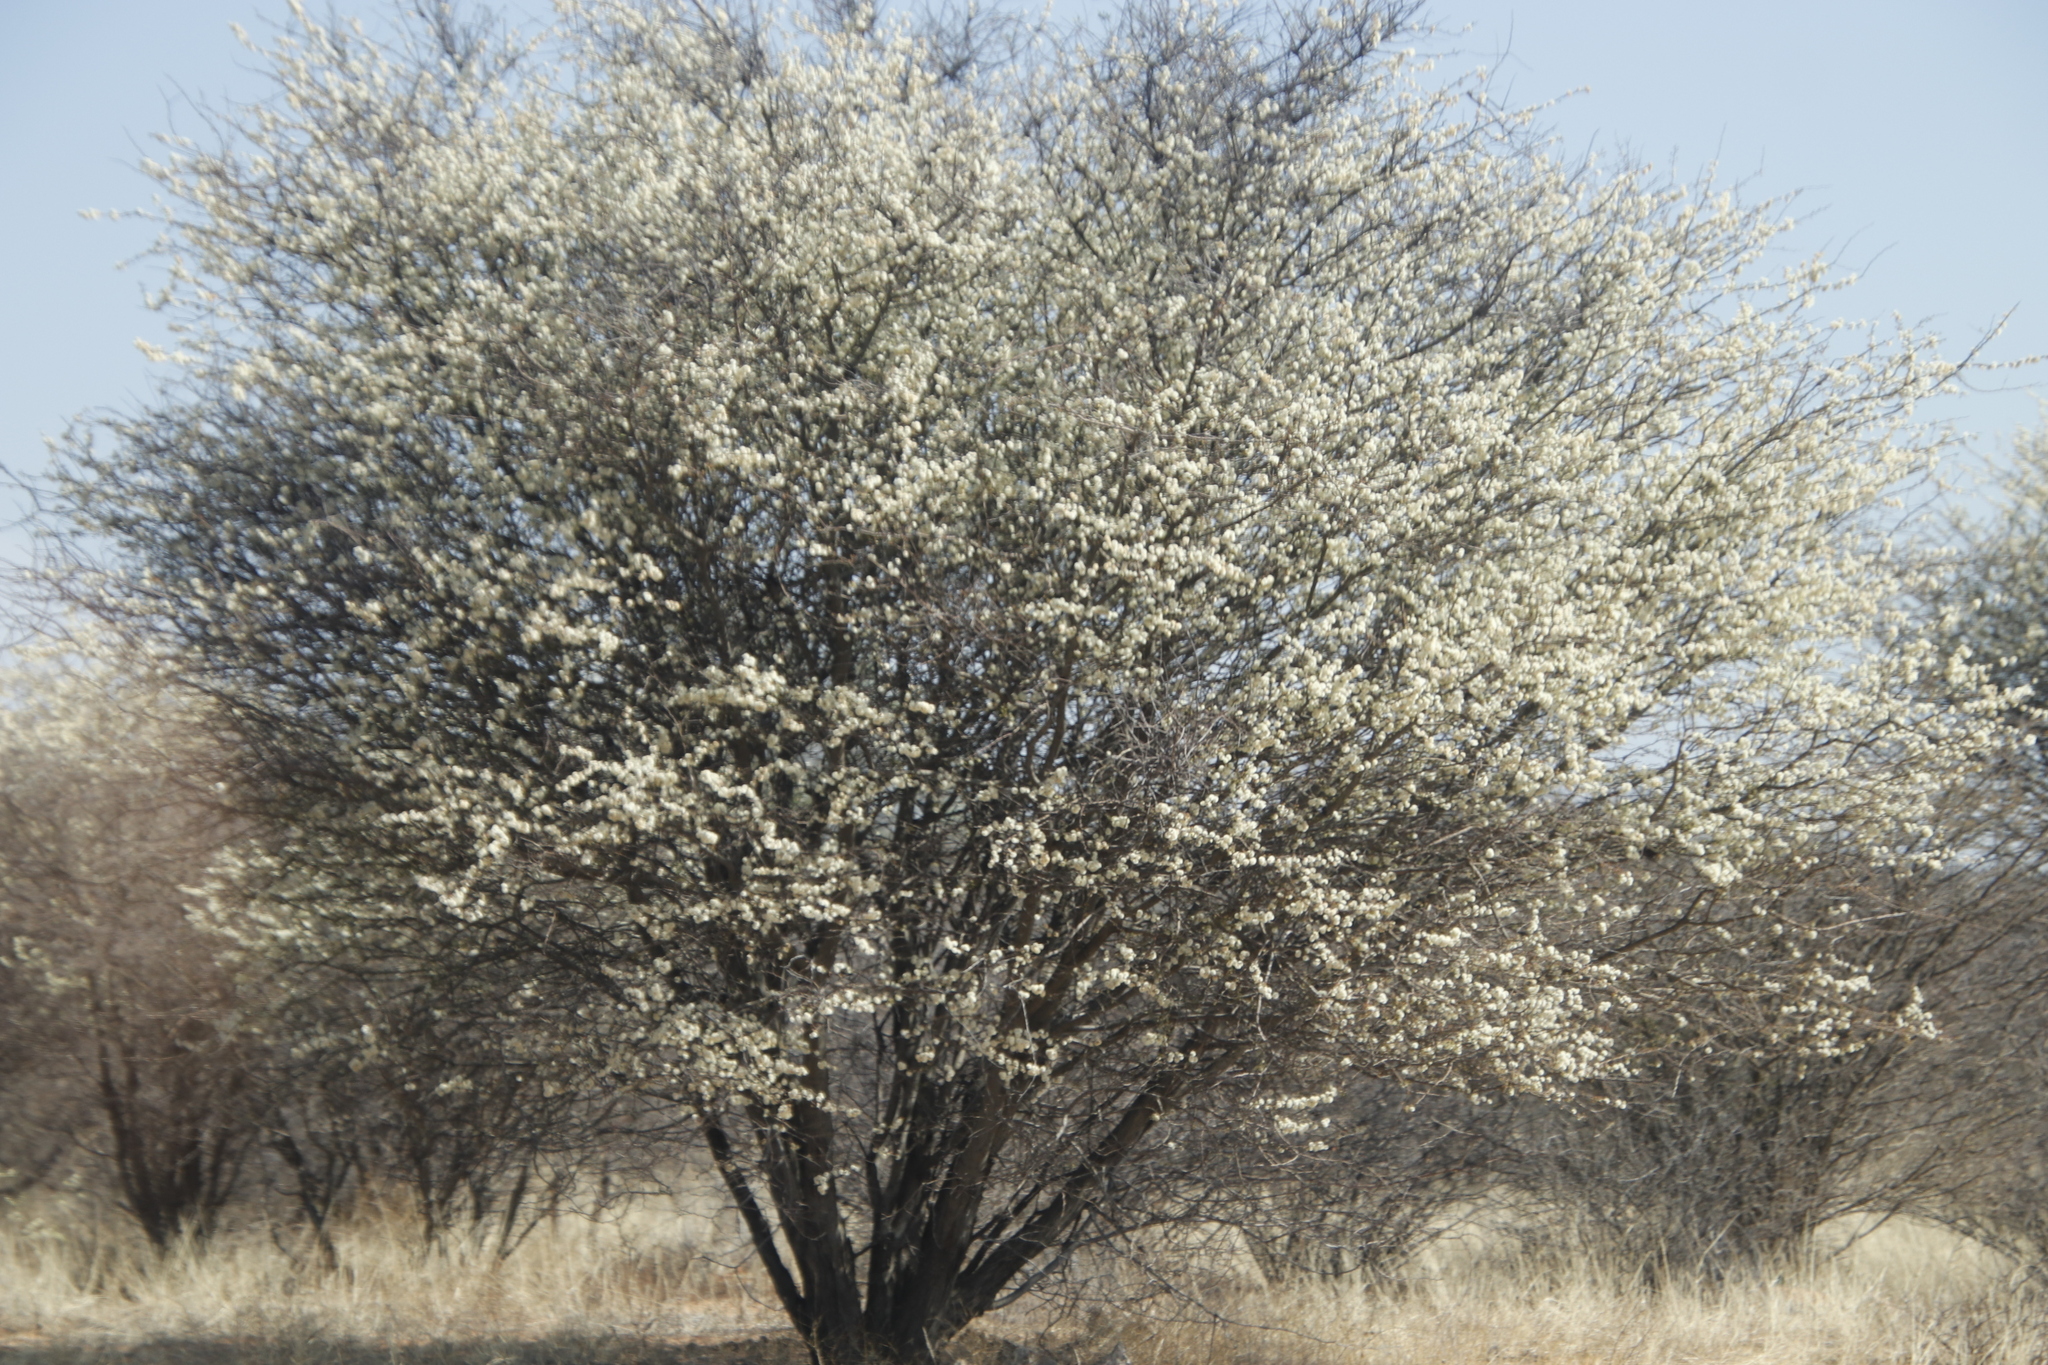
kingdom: Plantae
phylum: Tracheophyta
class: Magnoliopsida
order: Fabales
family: Fabaceae
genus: Senegalia
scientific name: Senegalia mellifera
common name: Hookthorn
